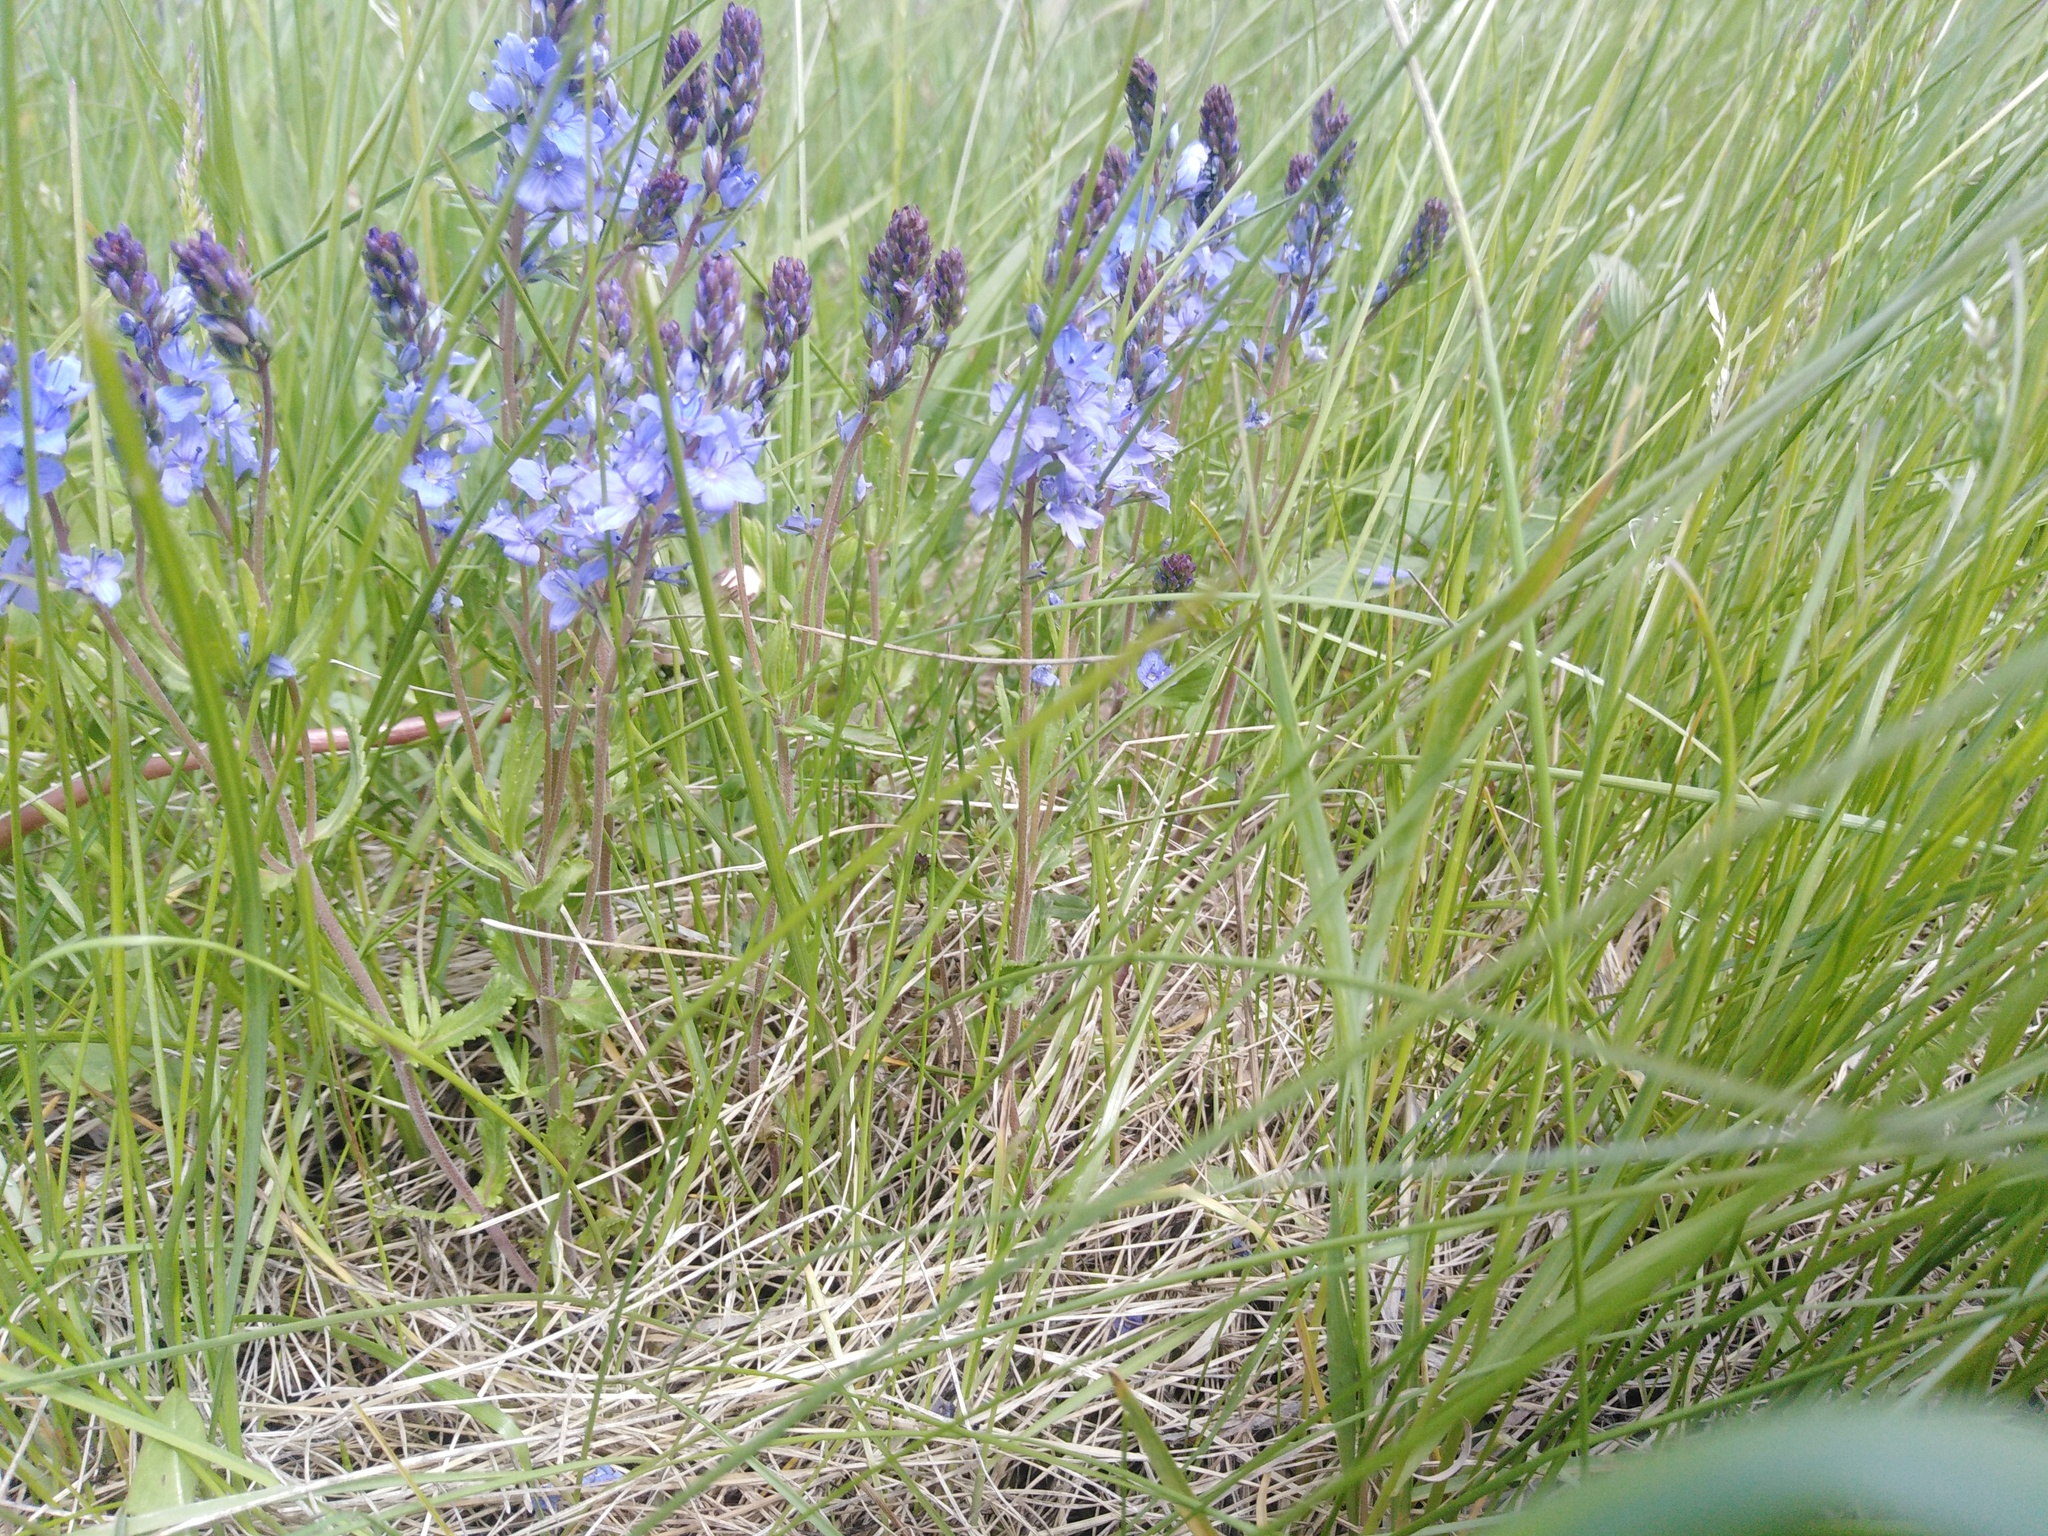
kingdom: Plantae
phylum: Tracheophyta
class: Magnoliopsida
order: Lamiales
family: Plantaginaceae
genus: Veronica
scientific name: Veronica prostrata
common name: Prostrate speedwell
